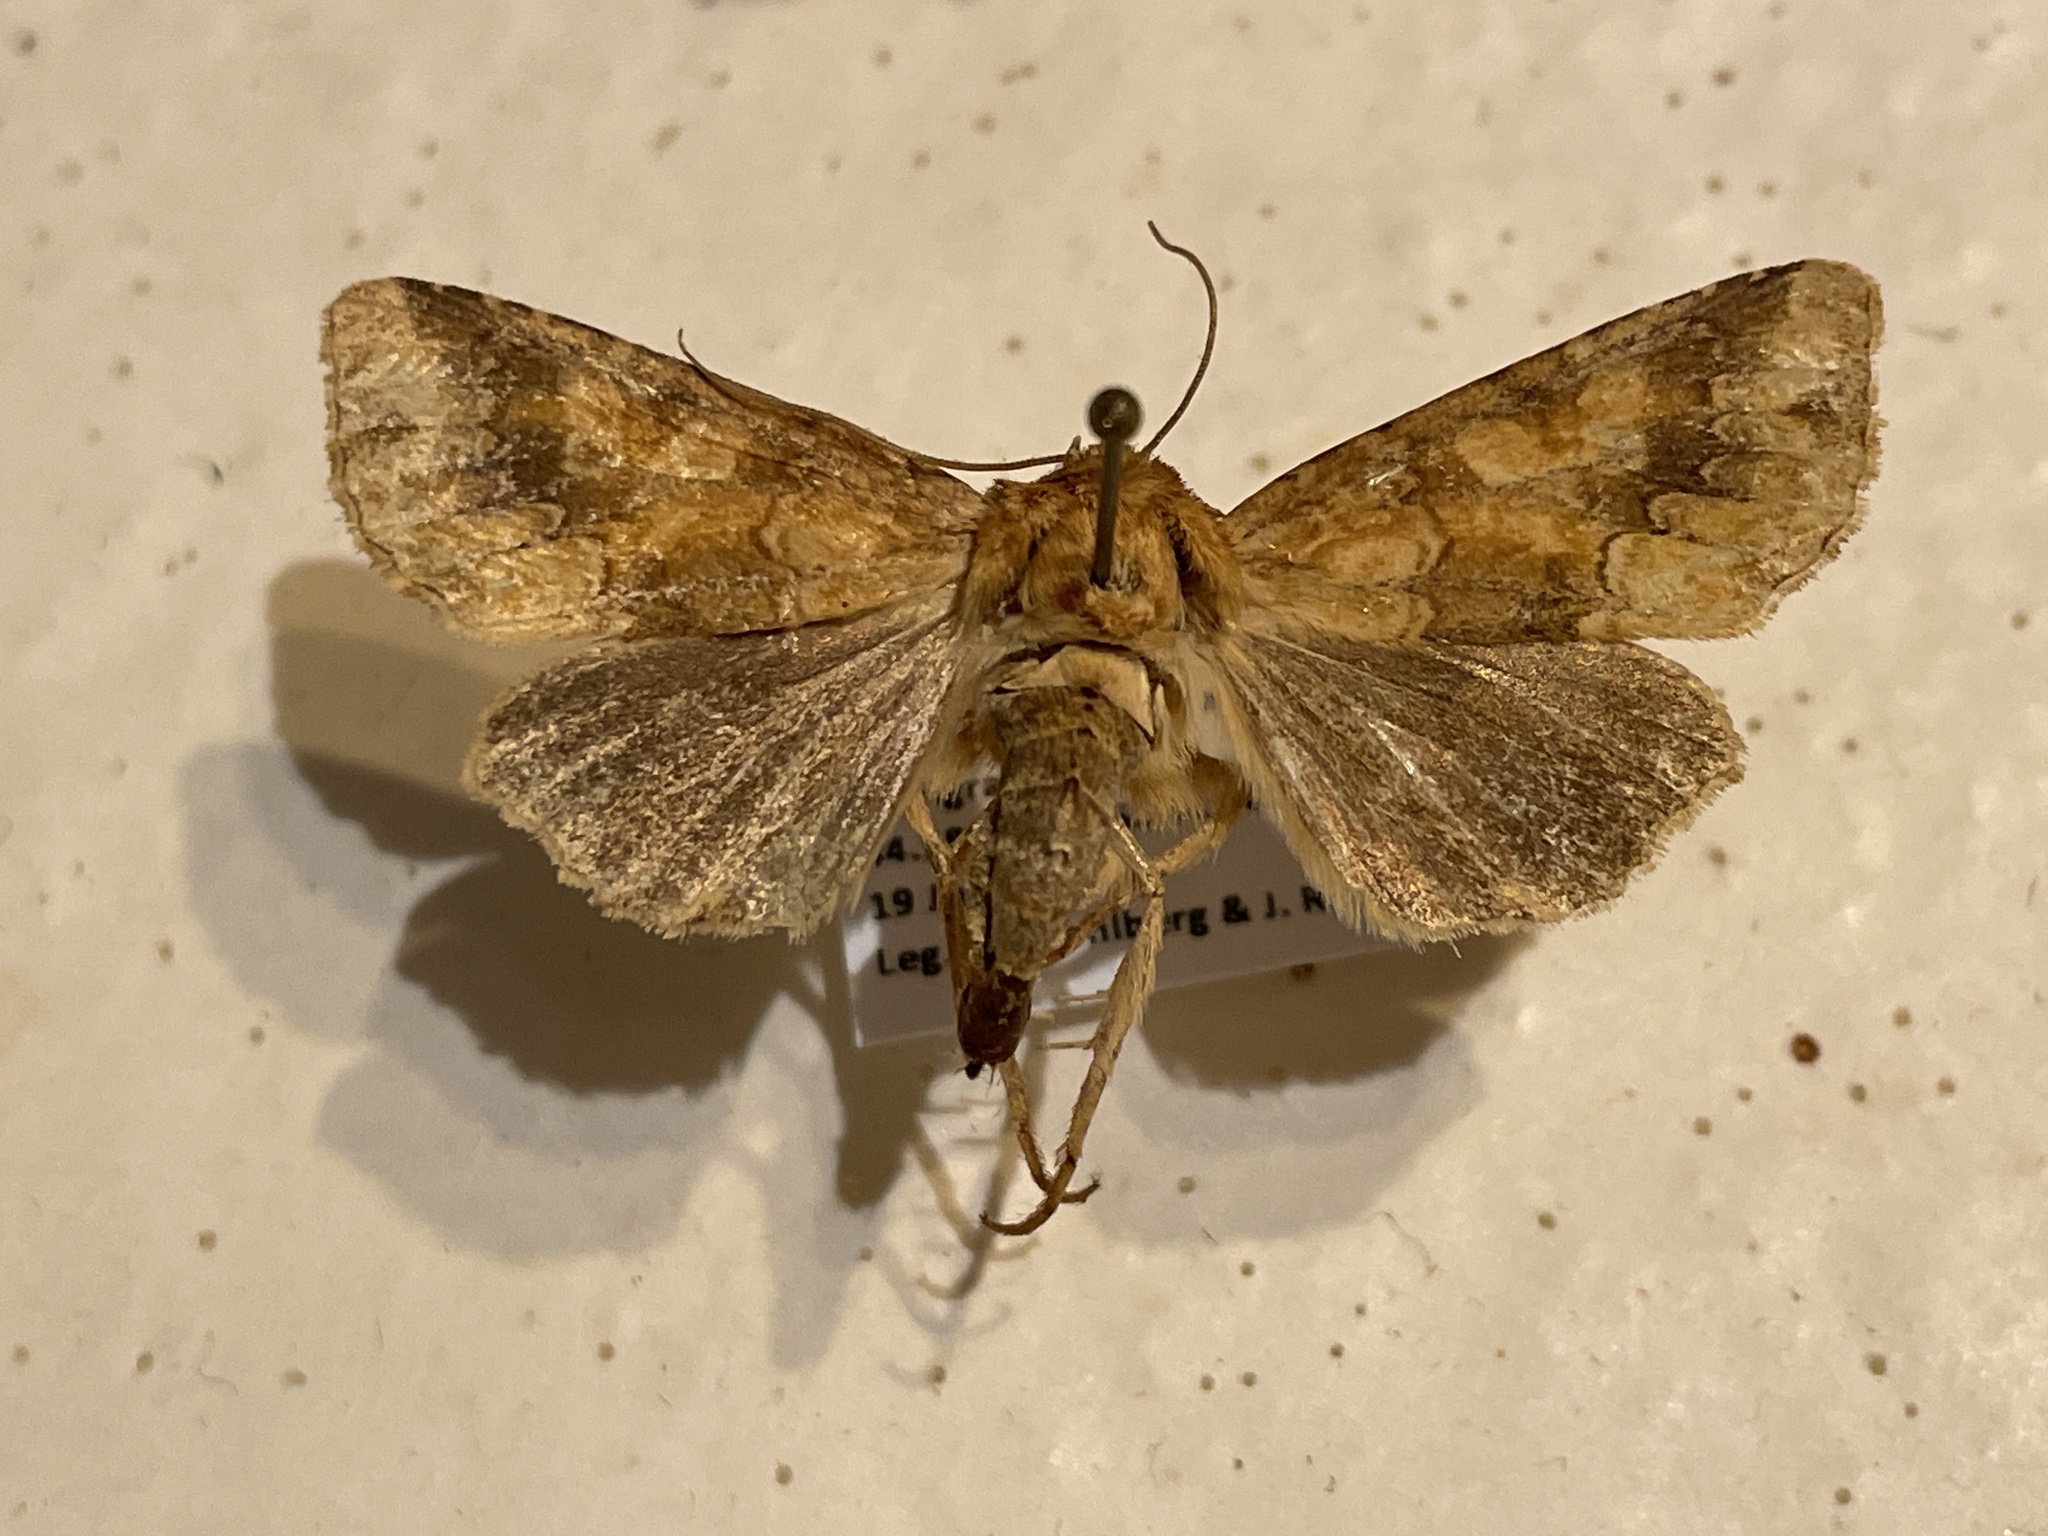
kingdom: Animalia
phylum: Arthropoda
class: Insecta
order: Lepidoptera
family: Noctuidae
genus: Conisania
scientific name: Conisania luteago
